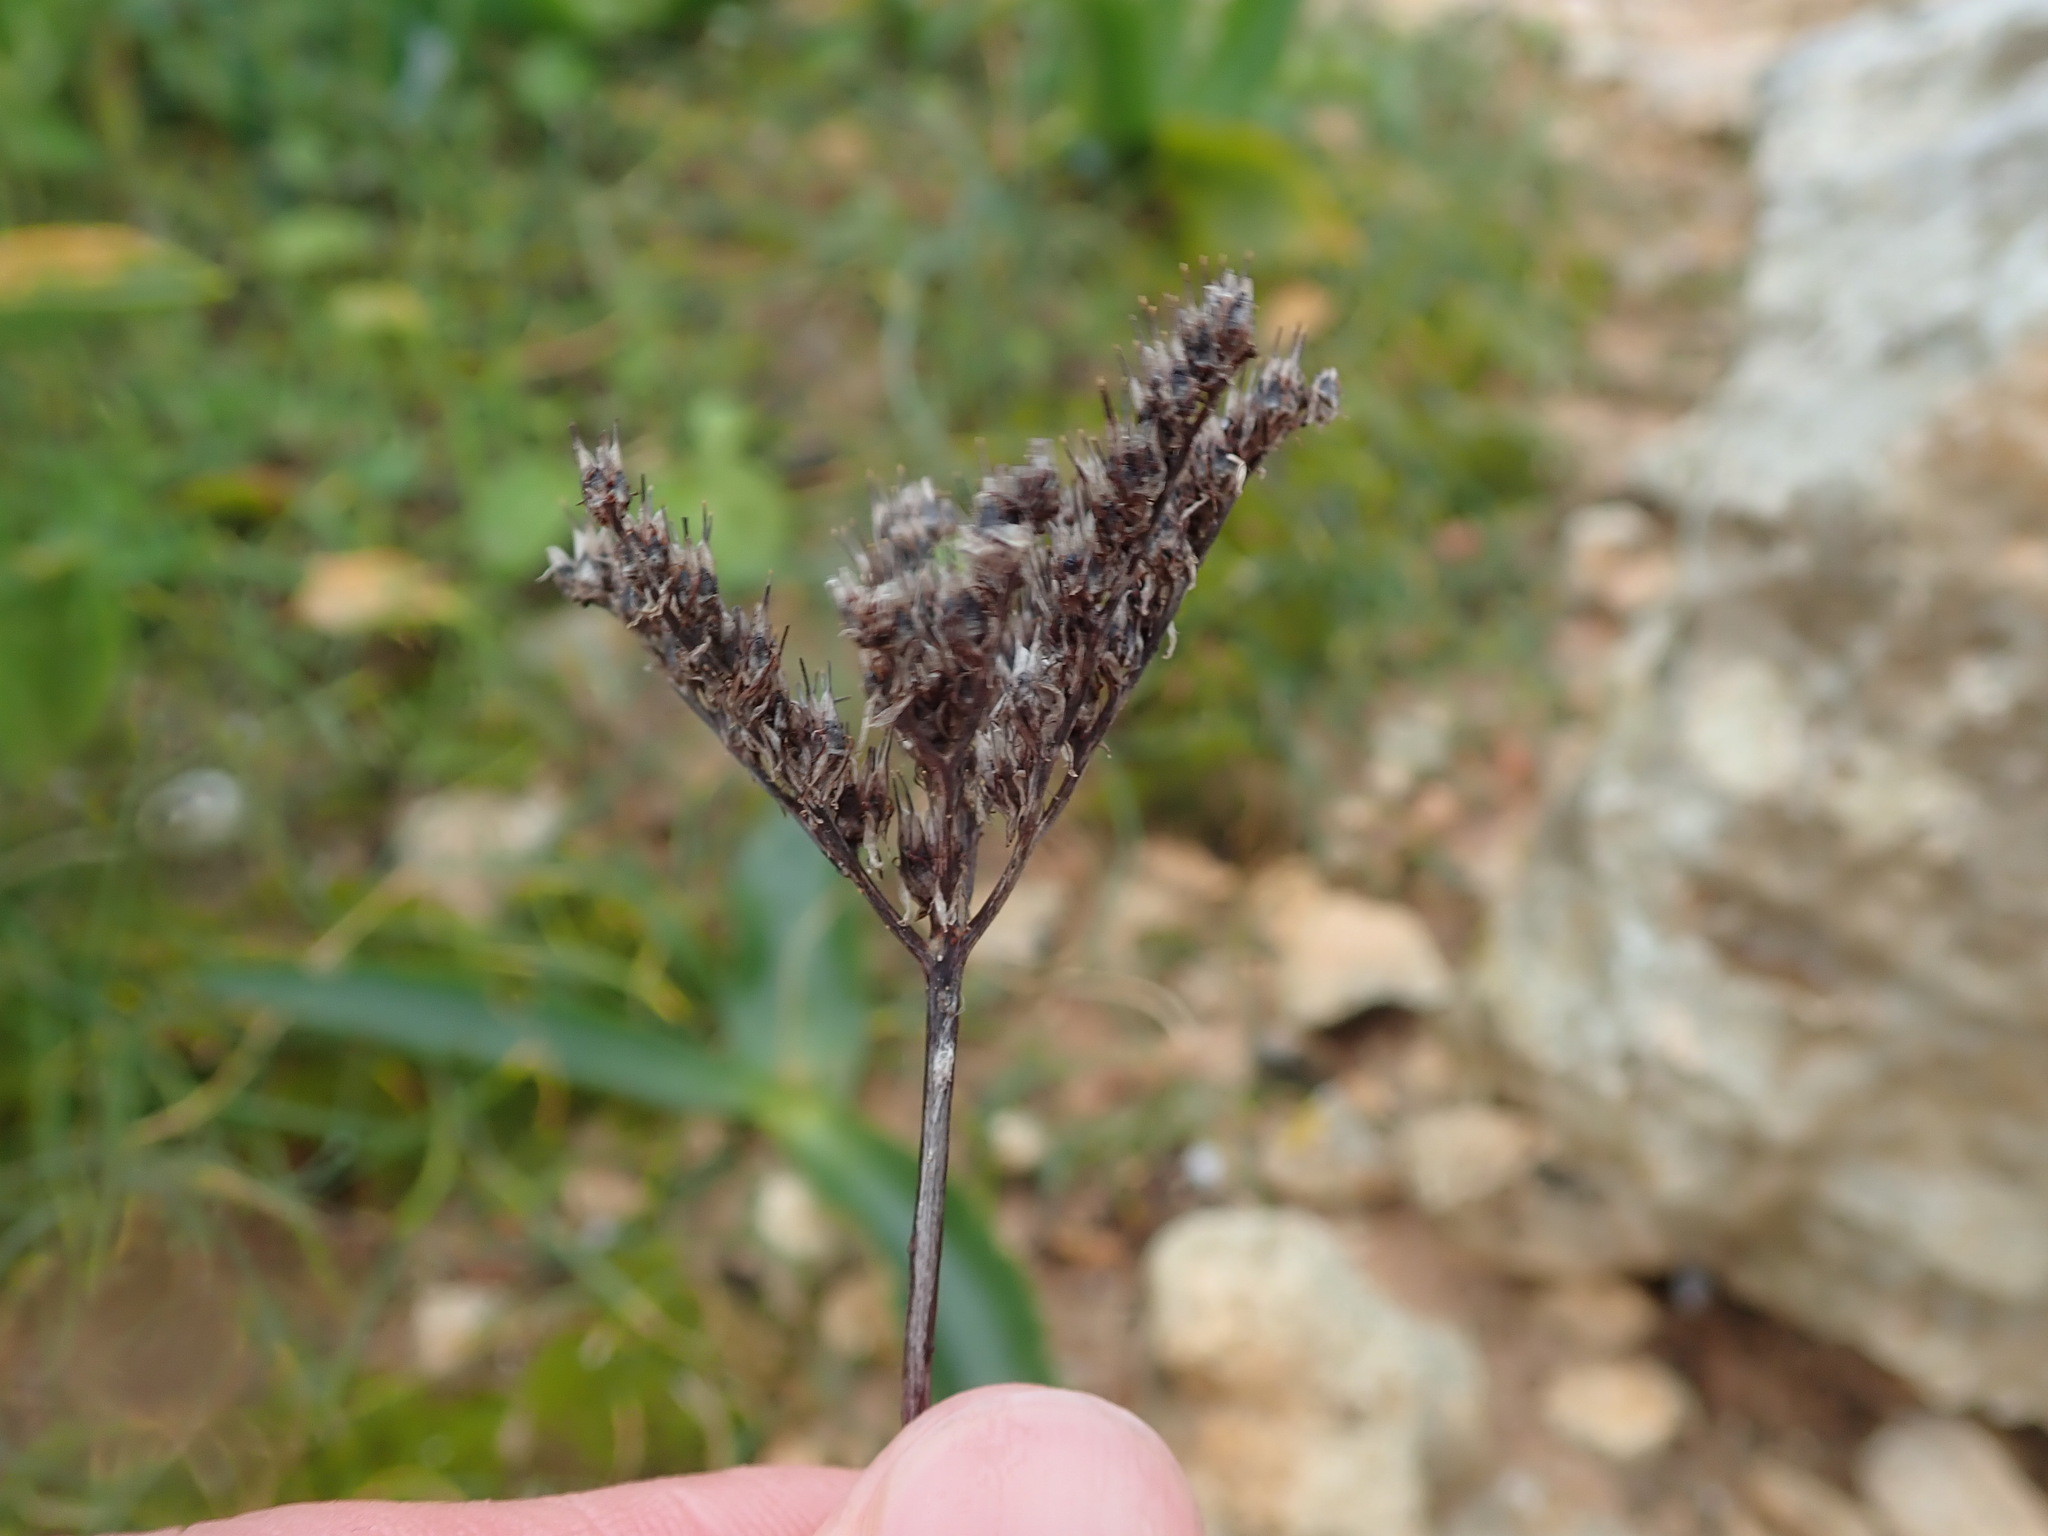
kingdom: Plantae
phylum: Tracheophyta
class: Magnoliopsida
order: Saxifragales
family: Crassulaceae
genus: Petrosedum
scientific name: Petrosedum sediforme
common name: Pale stonecrop
